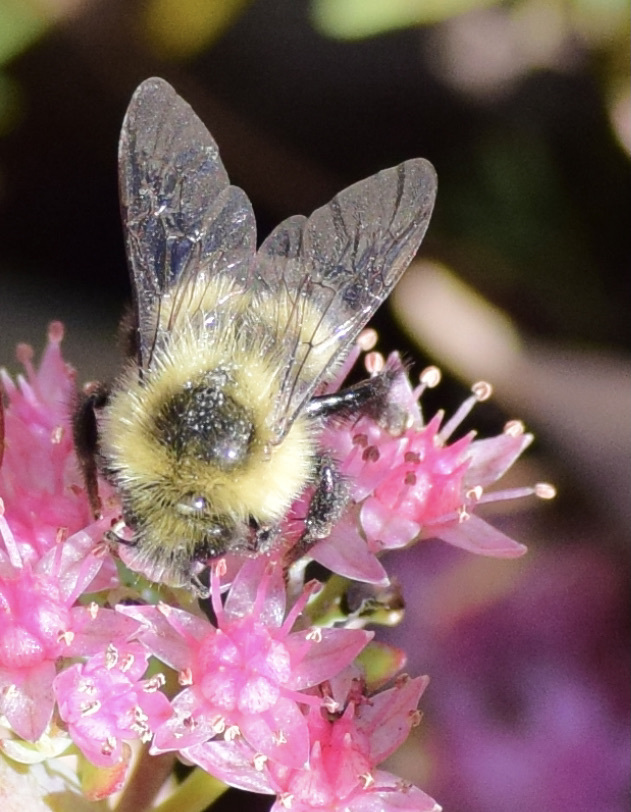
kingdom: Animalia
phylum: Arthropoda
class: Insecta
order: Hymenoptera
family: Apidae
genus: Bombus
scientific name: Bombus impatiens
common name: Common eastern bumble bee
